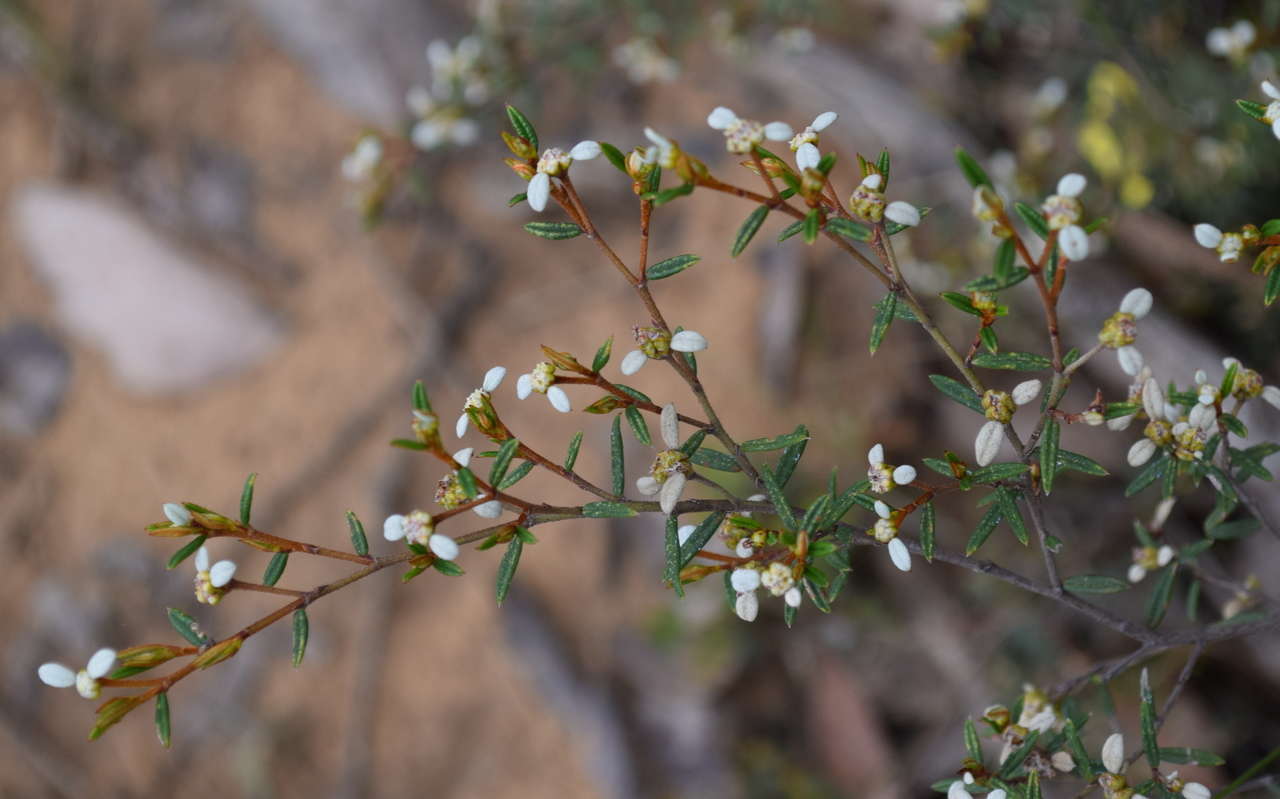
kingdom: Plantae
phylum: Tracheophyta
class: Magnoliopsida
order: Rosales
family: Rhamnaceae
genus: Spyridium
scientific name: Spyridium vexilliferum
